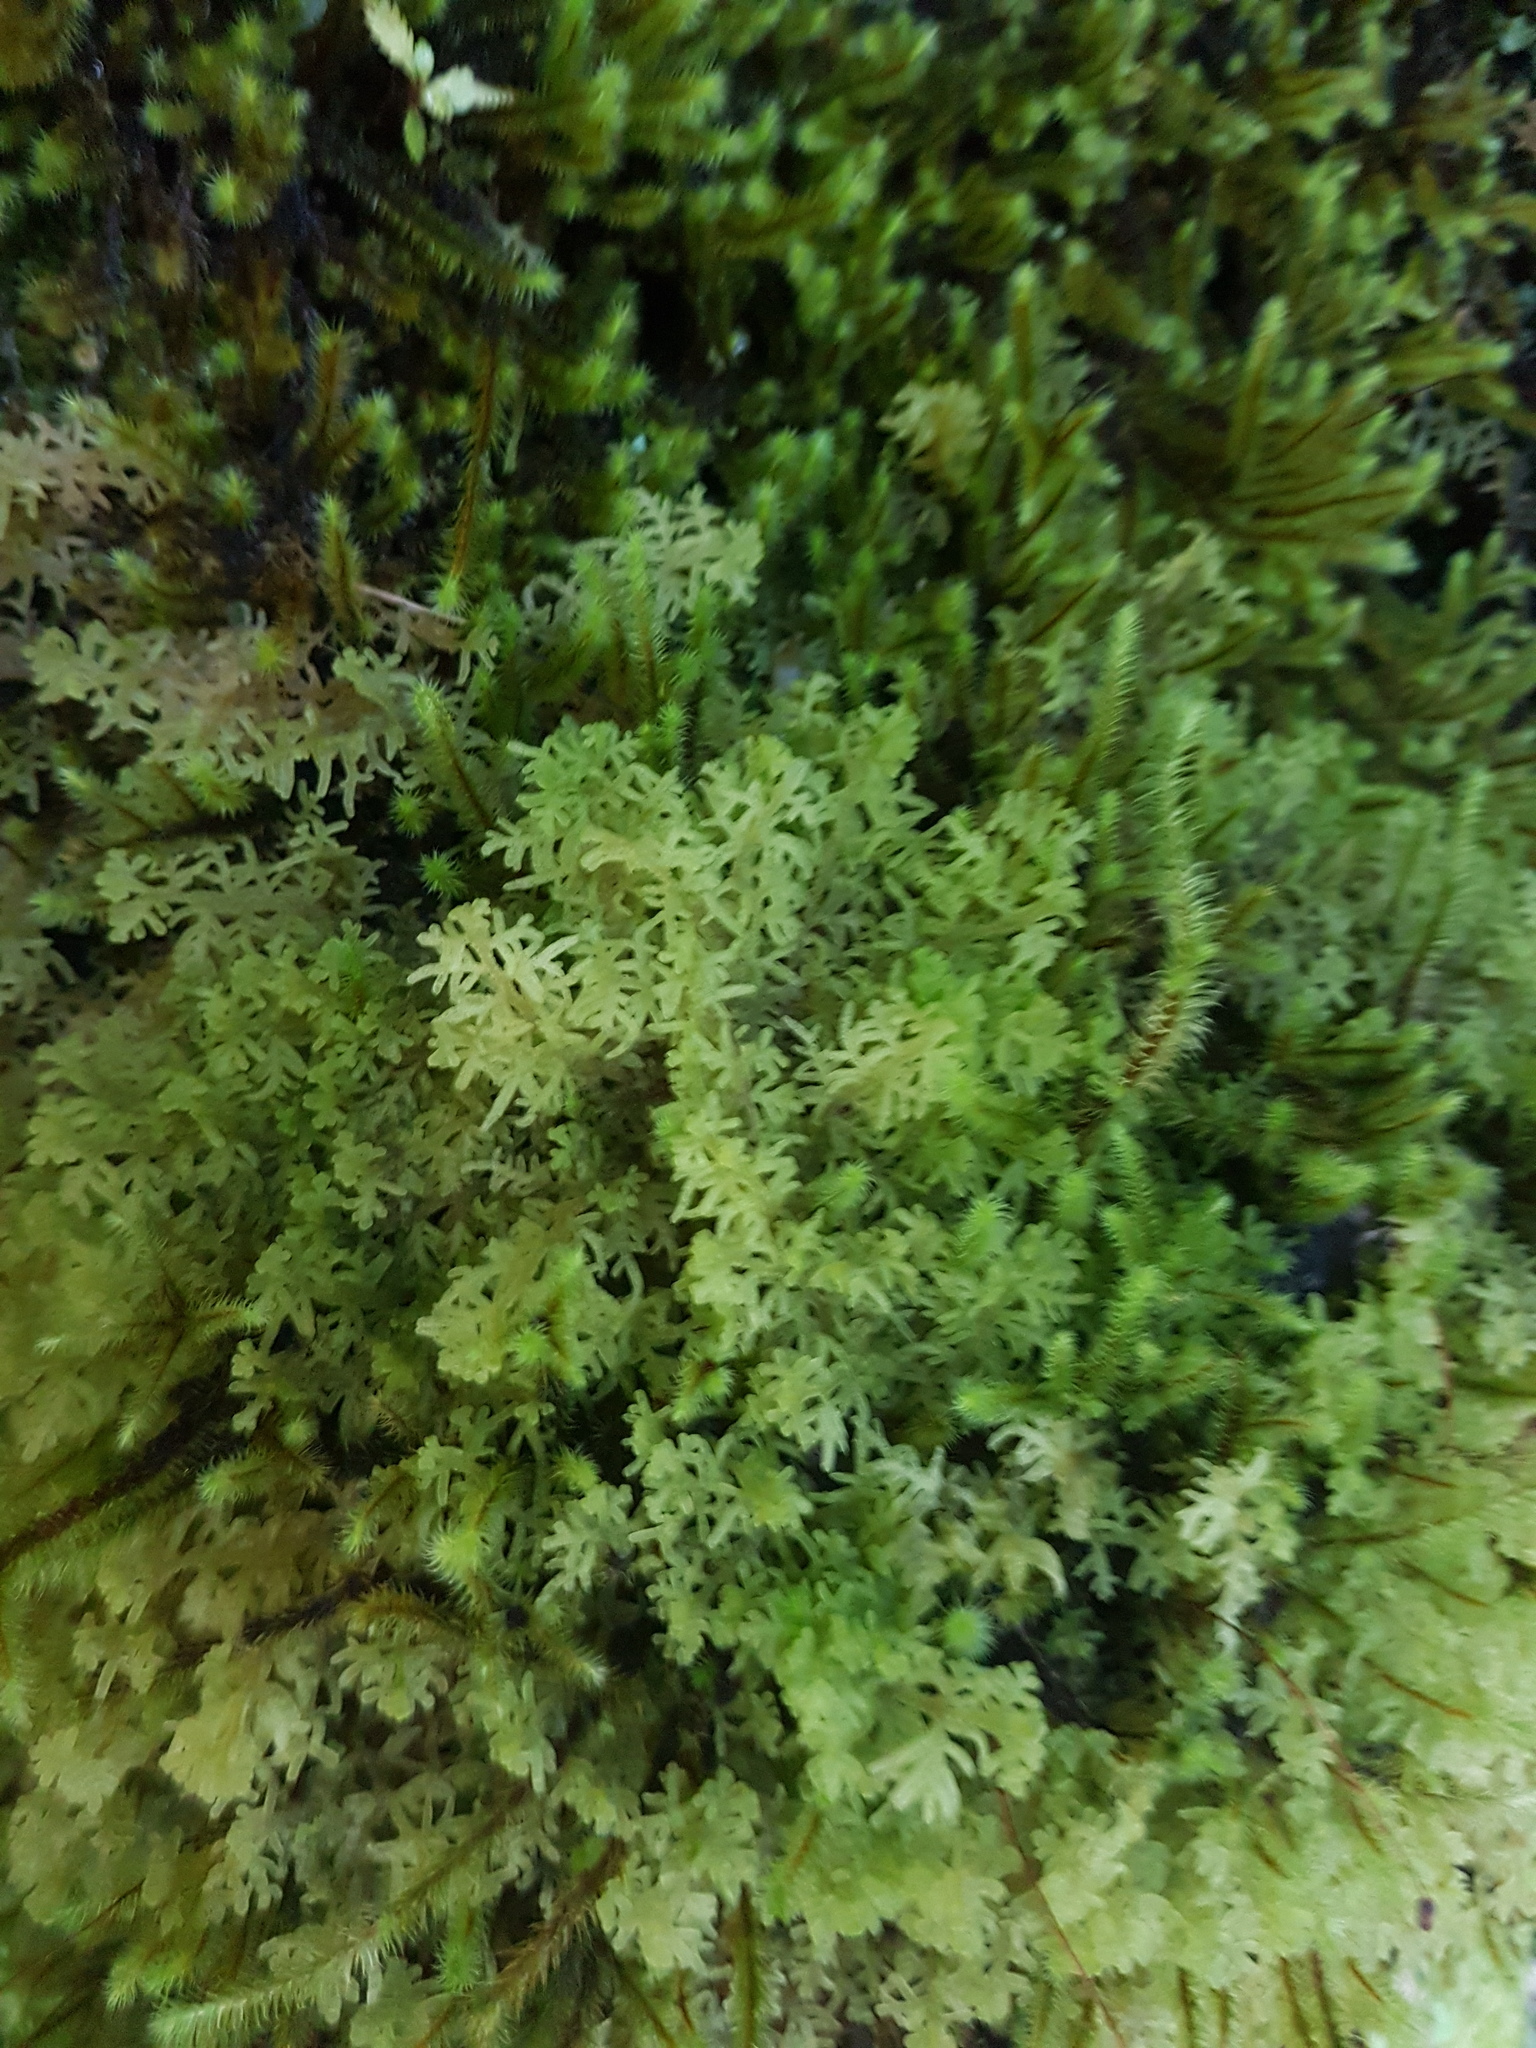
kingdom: Plantae
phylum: Marchantiophyta
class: Jungermanniopsida
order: Jungermanniales
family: Trichocoleaceae
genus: Trichocolea
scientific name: Trichocolea mollissima
